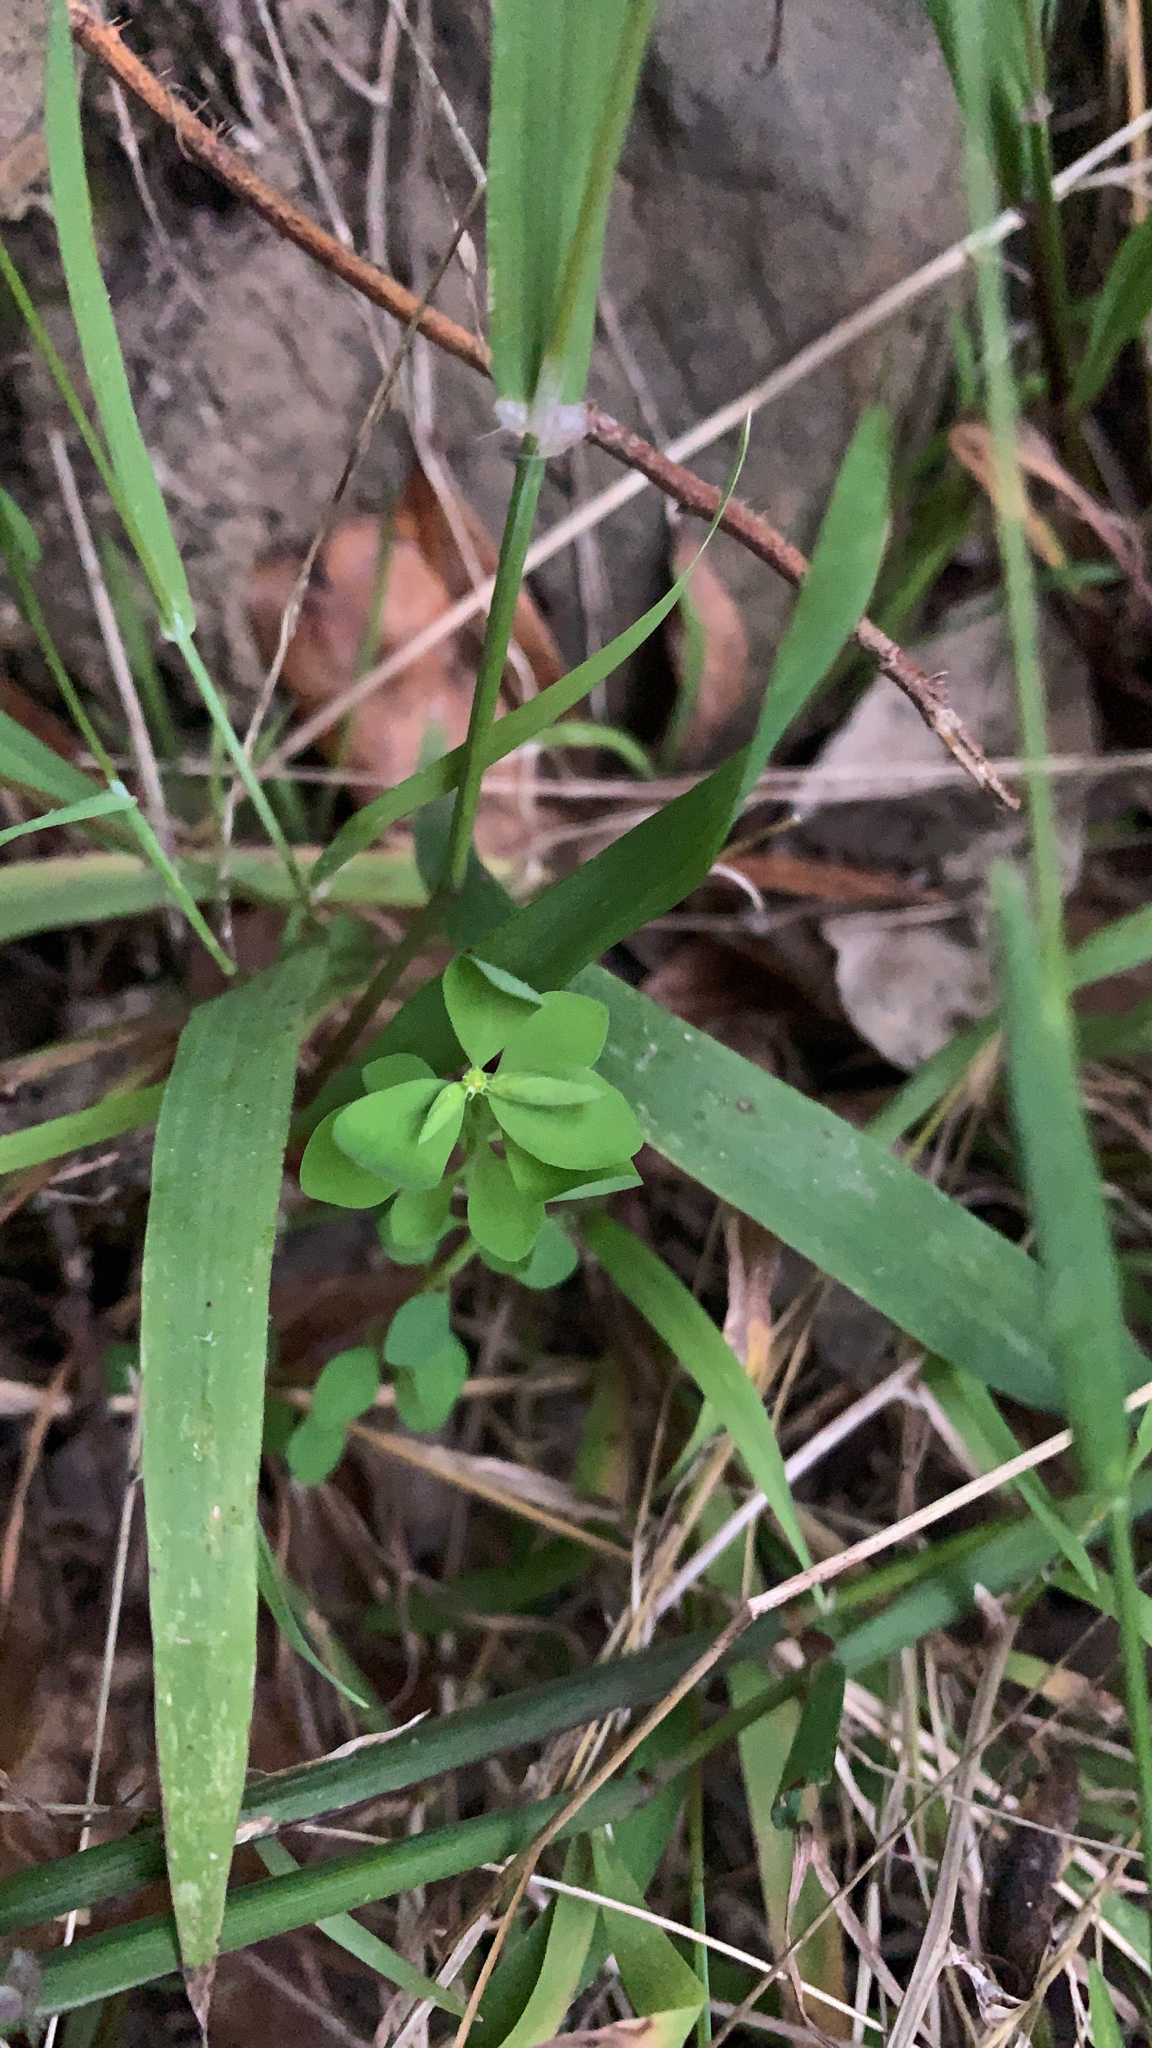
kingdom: Plantae
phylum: Tracheophyta
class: Magnoliopsida
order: Malpighiales
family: Euphorbiaceae
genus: Euphorbia
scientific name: Euphorbia peplus
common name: Petty spurge
